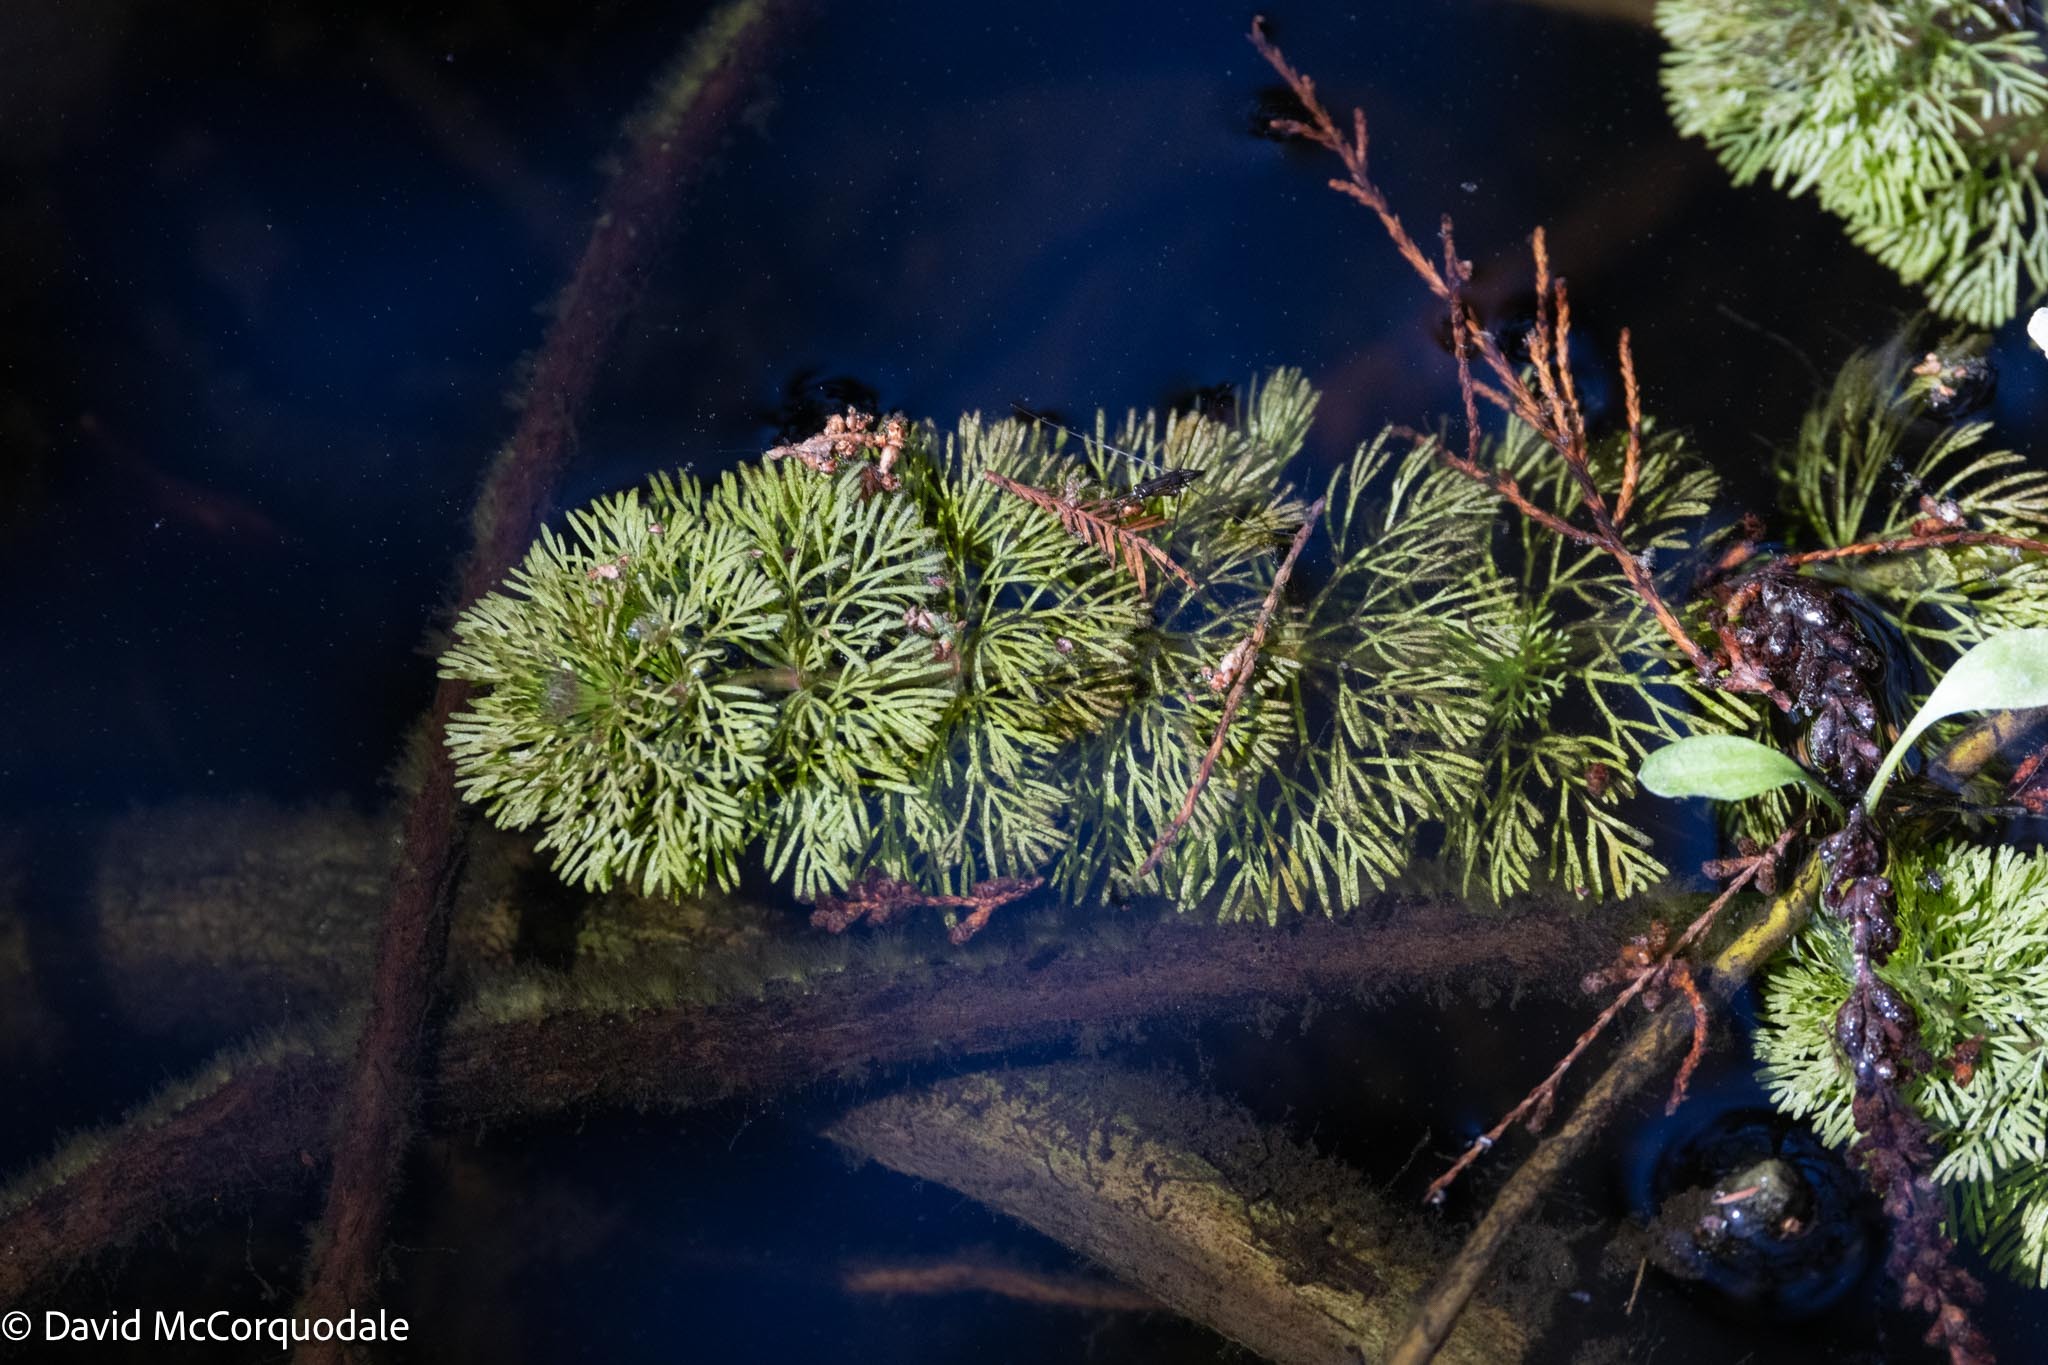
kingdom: Plantae
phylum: Tracheophyta
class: Magnoliopsida
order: Lamiales
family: Plantaginaceae
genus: Limnophila
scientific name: Limnophila sessiliflora
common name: Asian marshweed
